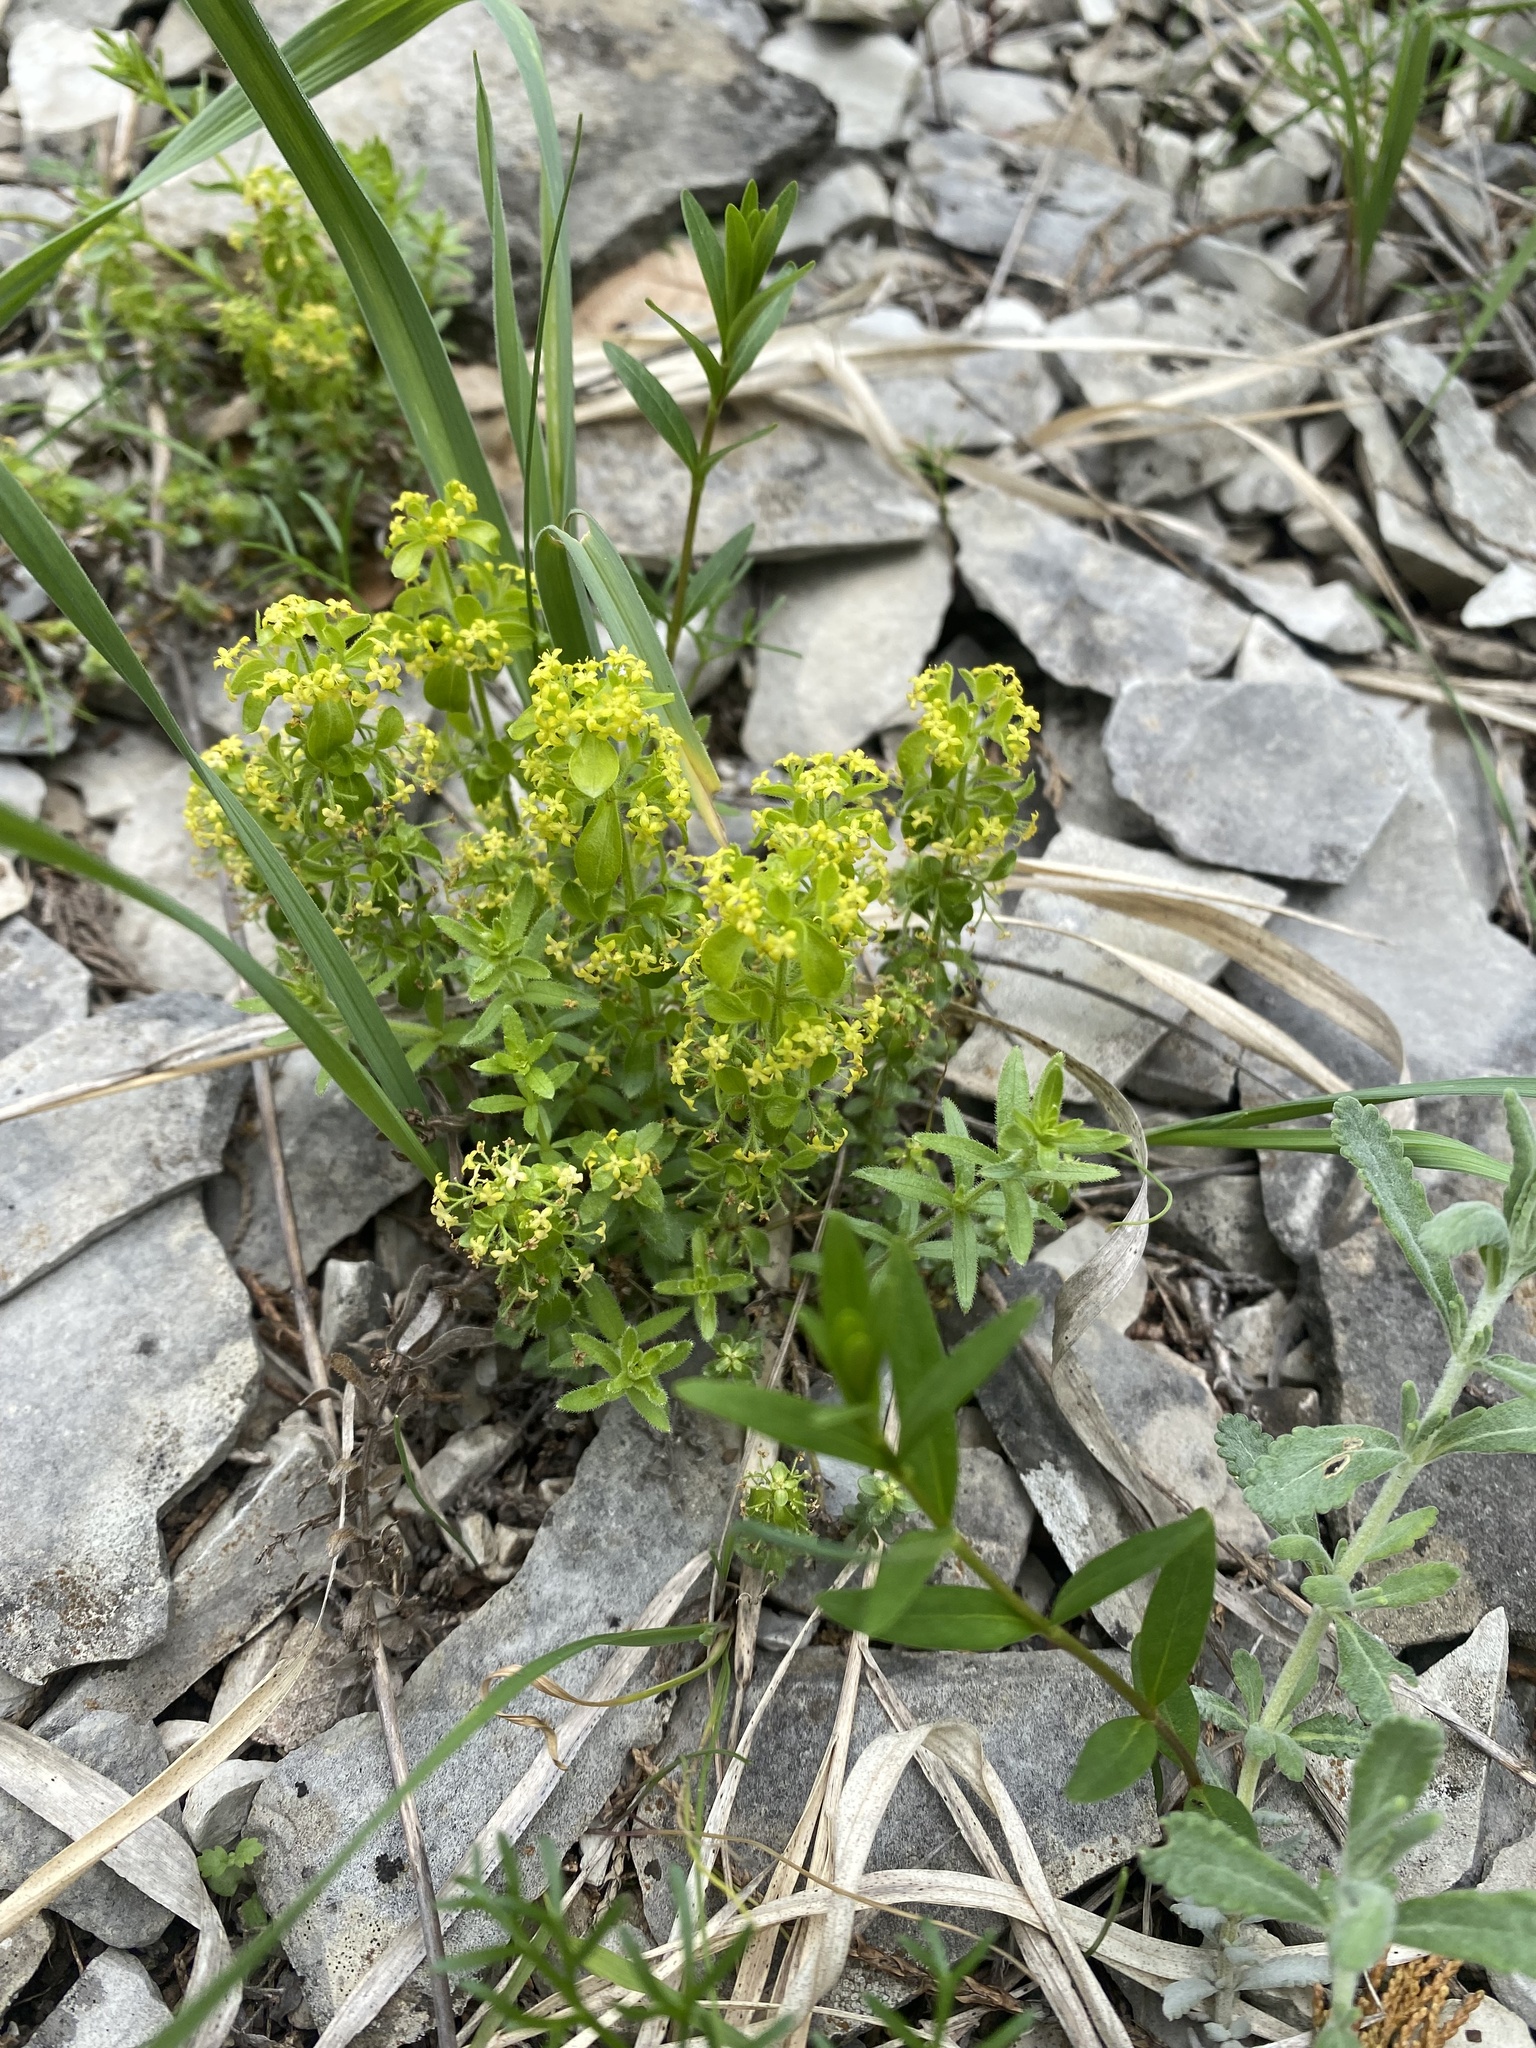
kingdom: Plantae
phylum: Tracheophyta
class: Magnoliopsida
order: Gentianales
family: Rubiaceae
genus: Cruciata
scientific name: Cruciata taurica
